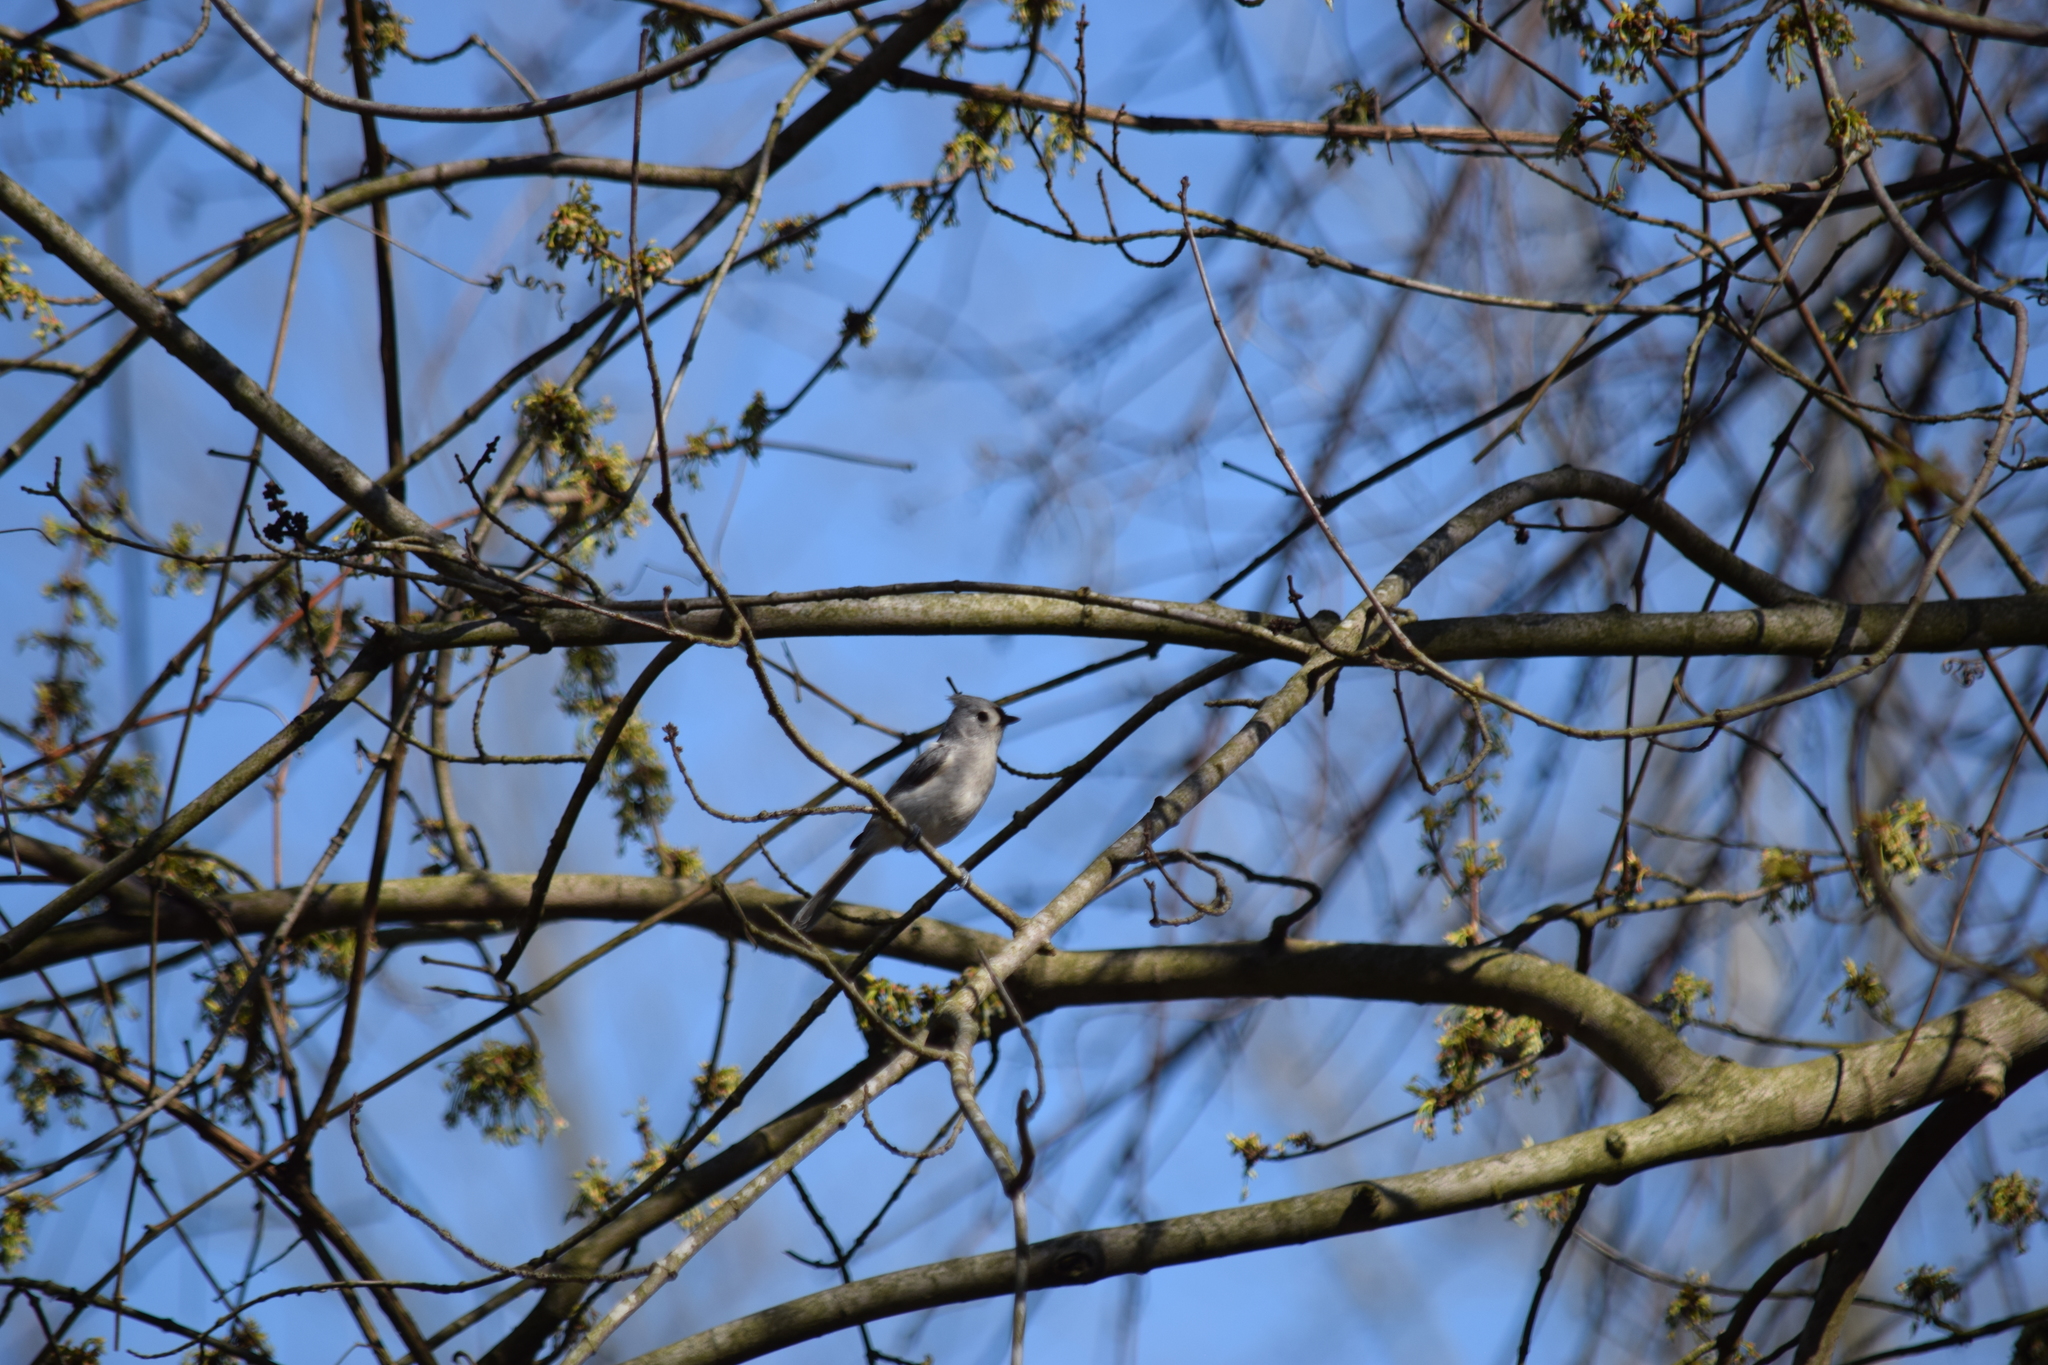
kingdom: Animalia
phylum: Chordata
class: Aves
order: Passeriformes
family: Paridae
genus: Baeolophus
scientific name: Baeolophus bicolor
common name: Tufted titmouse
